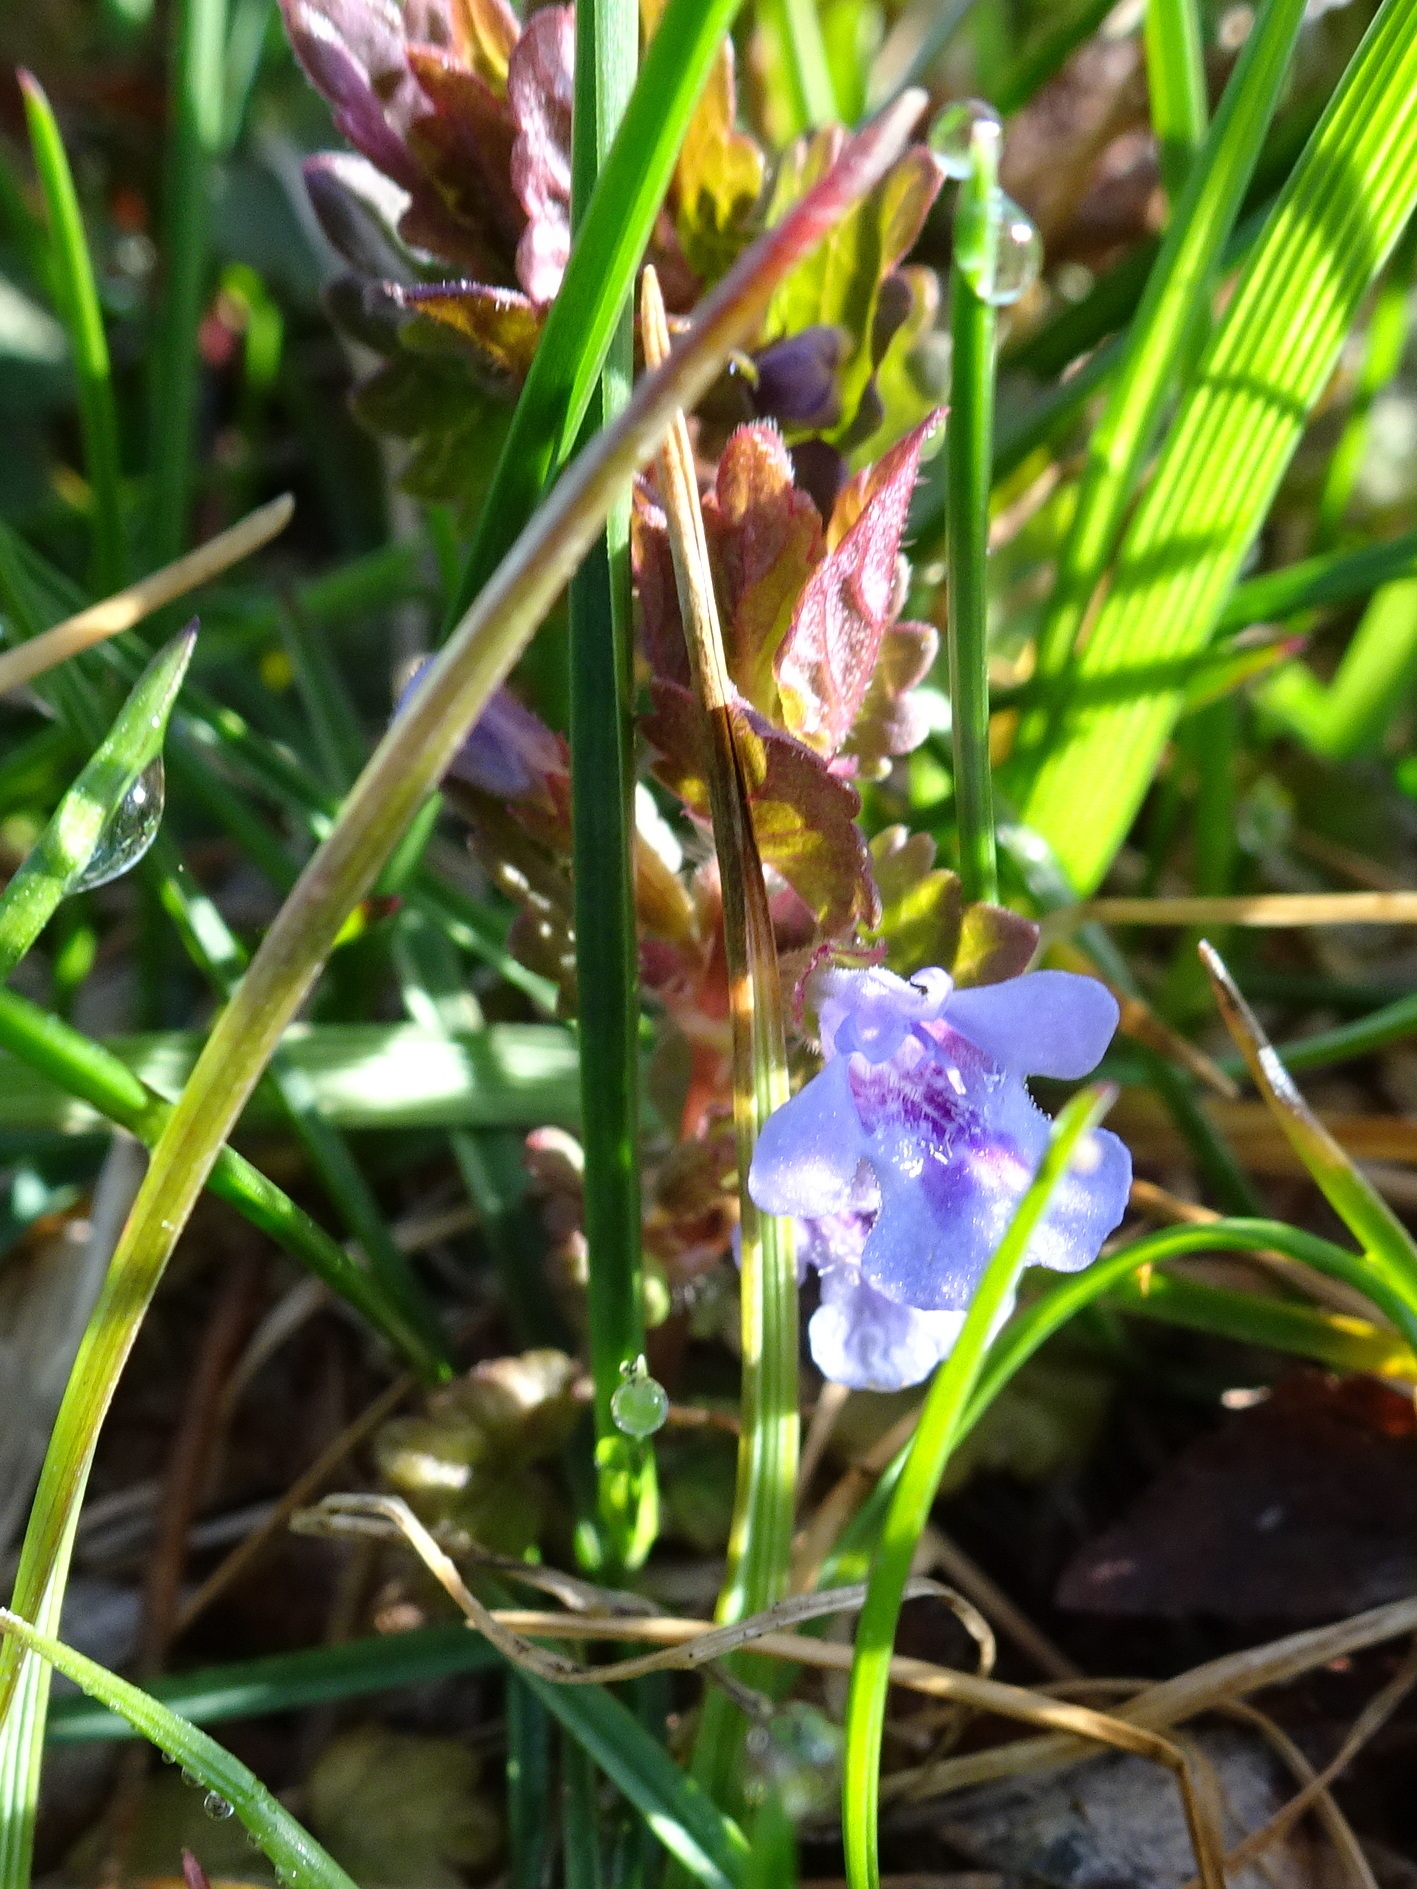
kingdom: Plantae
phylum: Tracheophyta
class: Magnoliopsida
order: Lamiales
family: Lamiaceae
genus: Glechoma
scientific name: Glechoma hederacea
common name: Ground ivy
